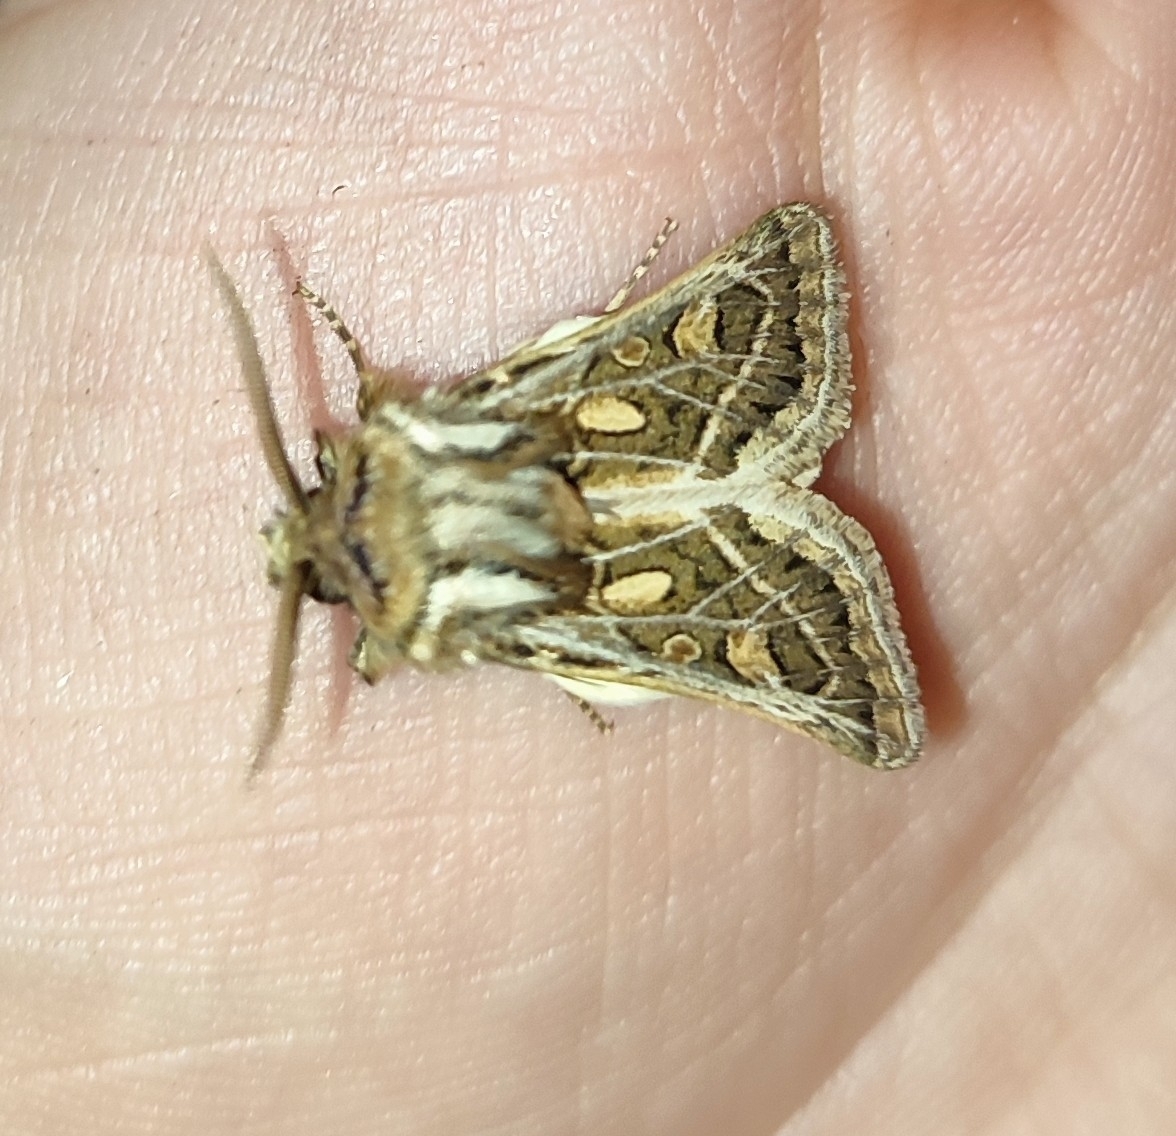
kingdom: Animalia
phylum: Arthropoda
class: Insecta
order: Lepidoptera
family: Noctuidae
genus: Ulochlaena
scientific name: Ulochlaena hirta
